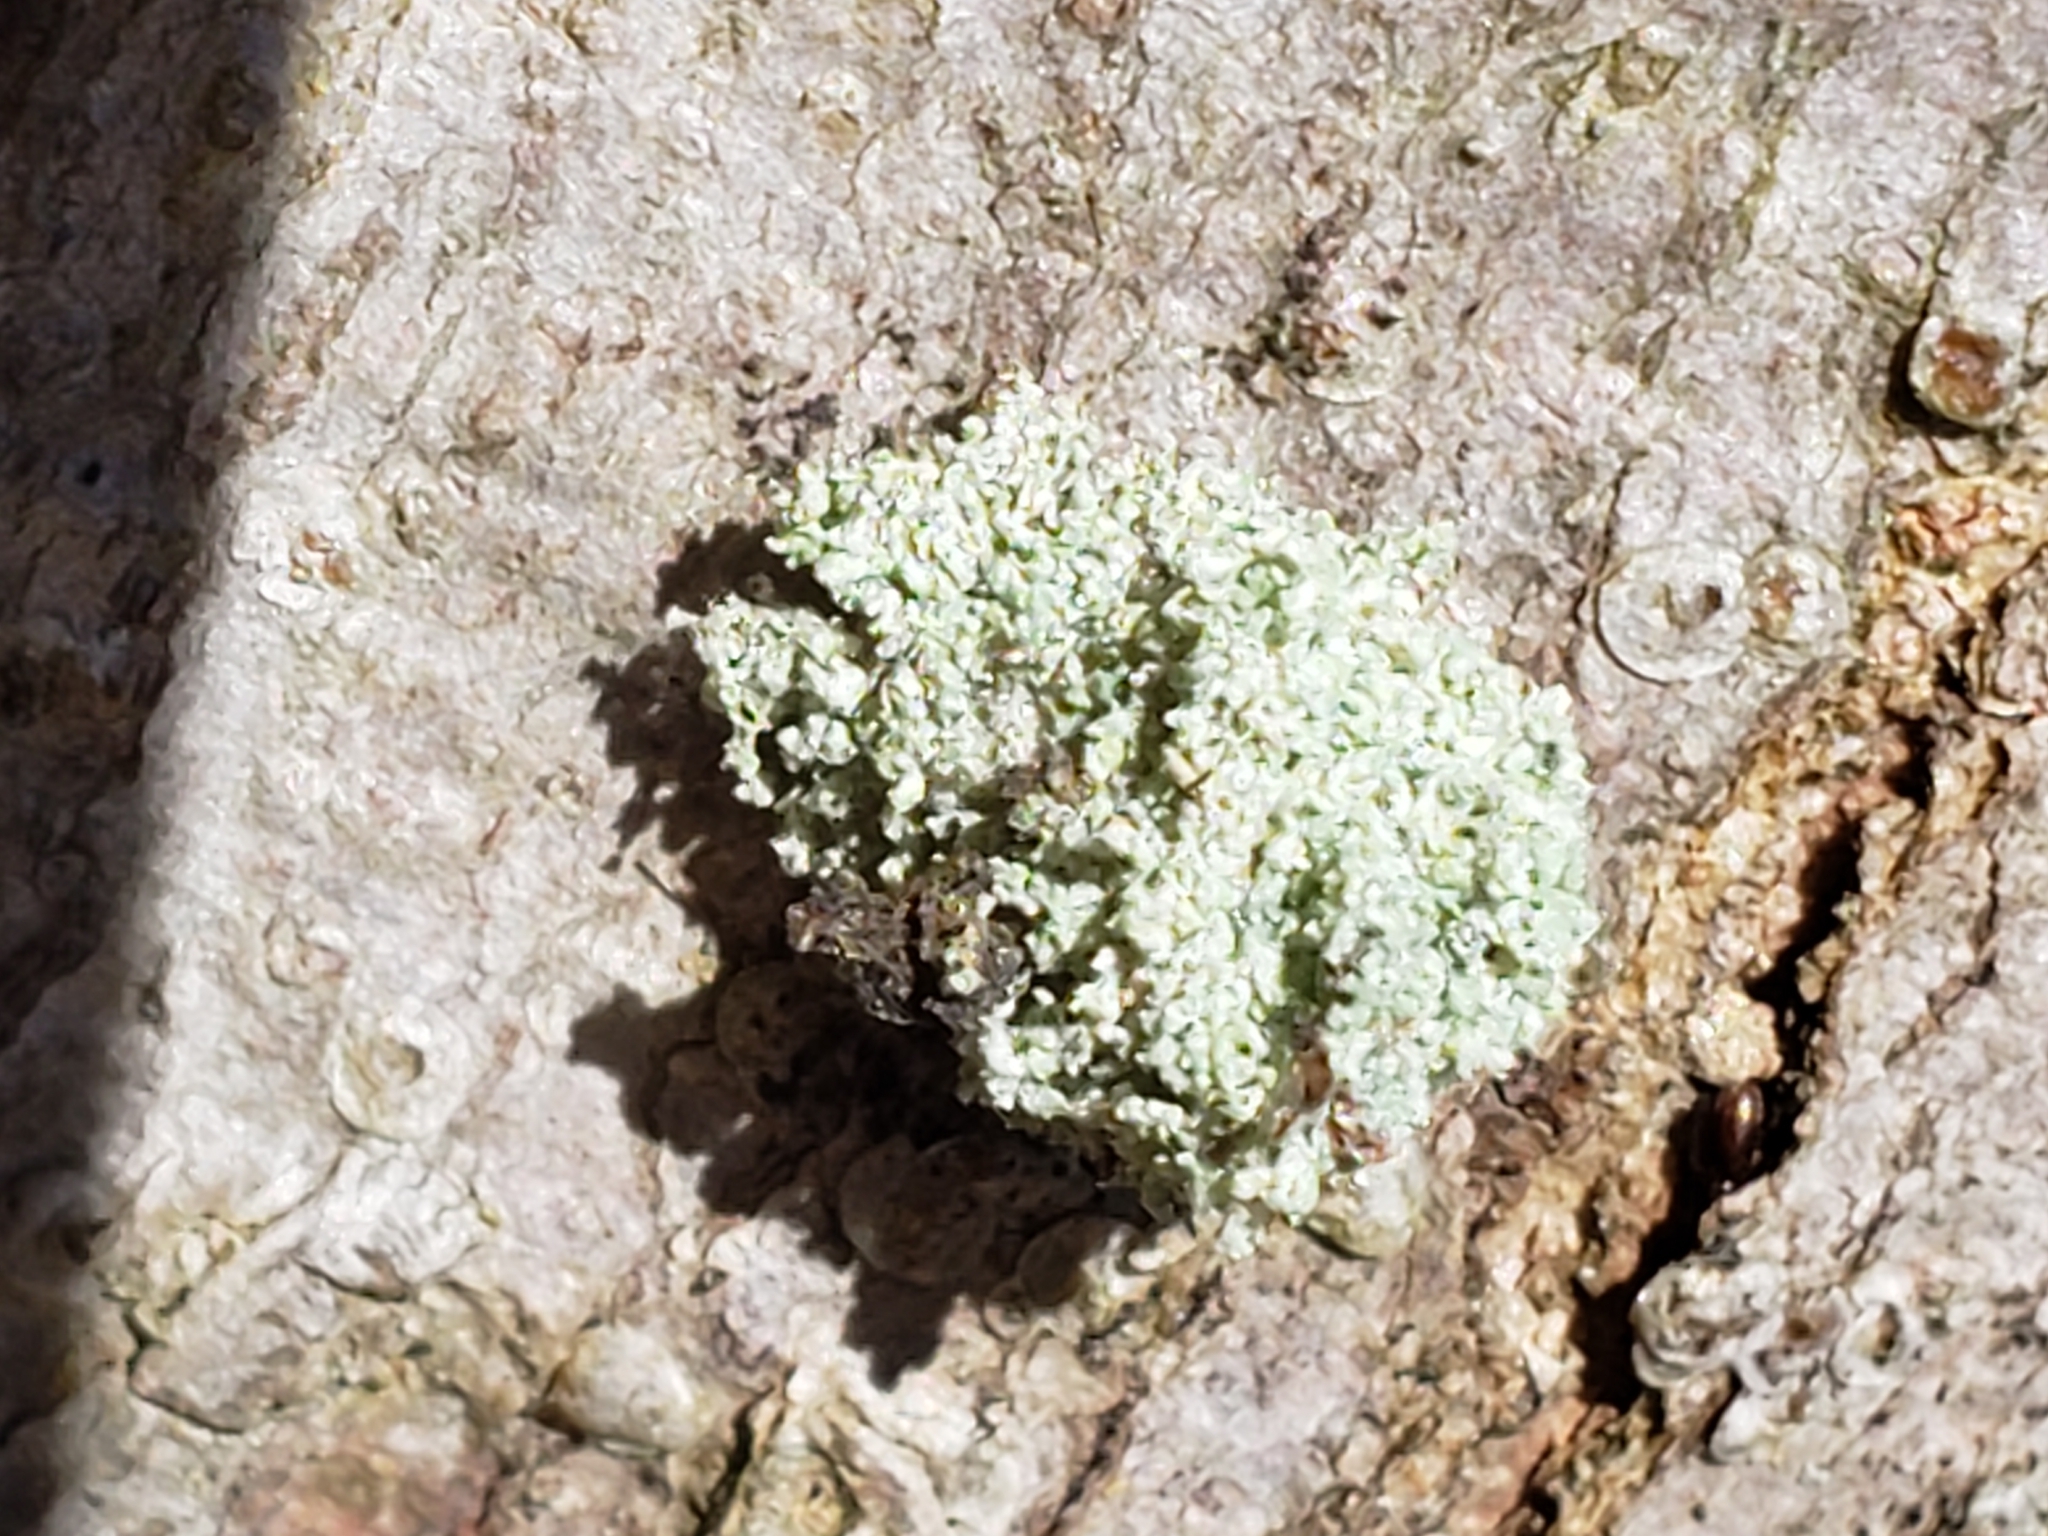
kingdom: Animalia
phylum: Arthropoda
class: Insecta
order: Neuroptera
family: Chrysopidae
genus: Leucochrysa
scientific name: Leucochrysa pavida
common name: Lichen-carrying green lacewing
